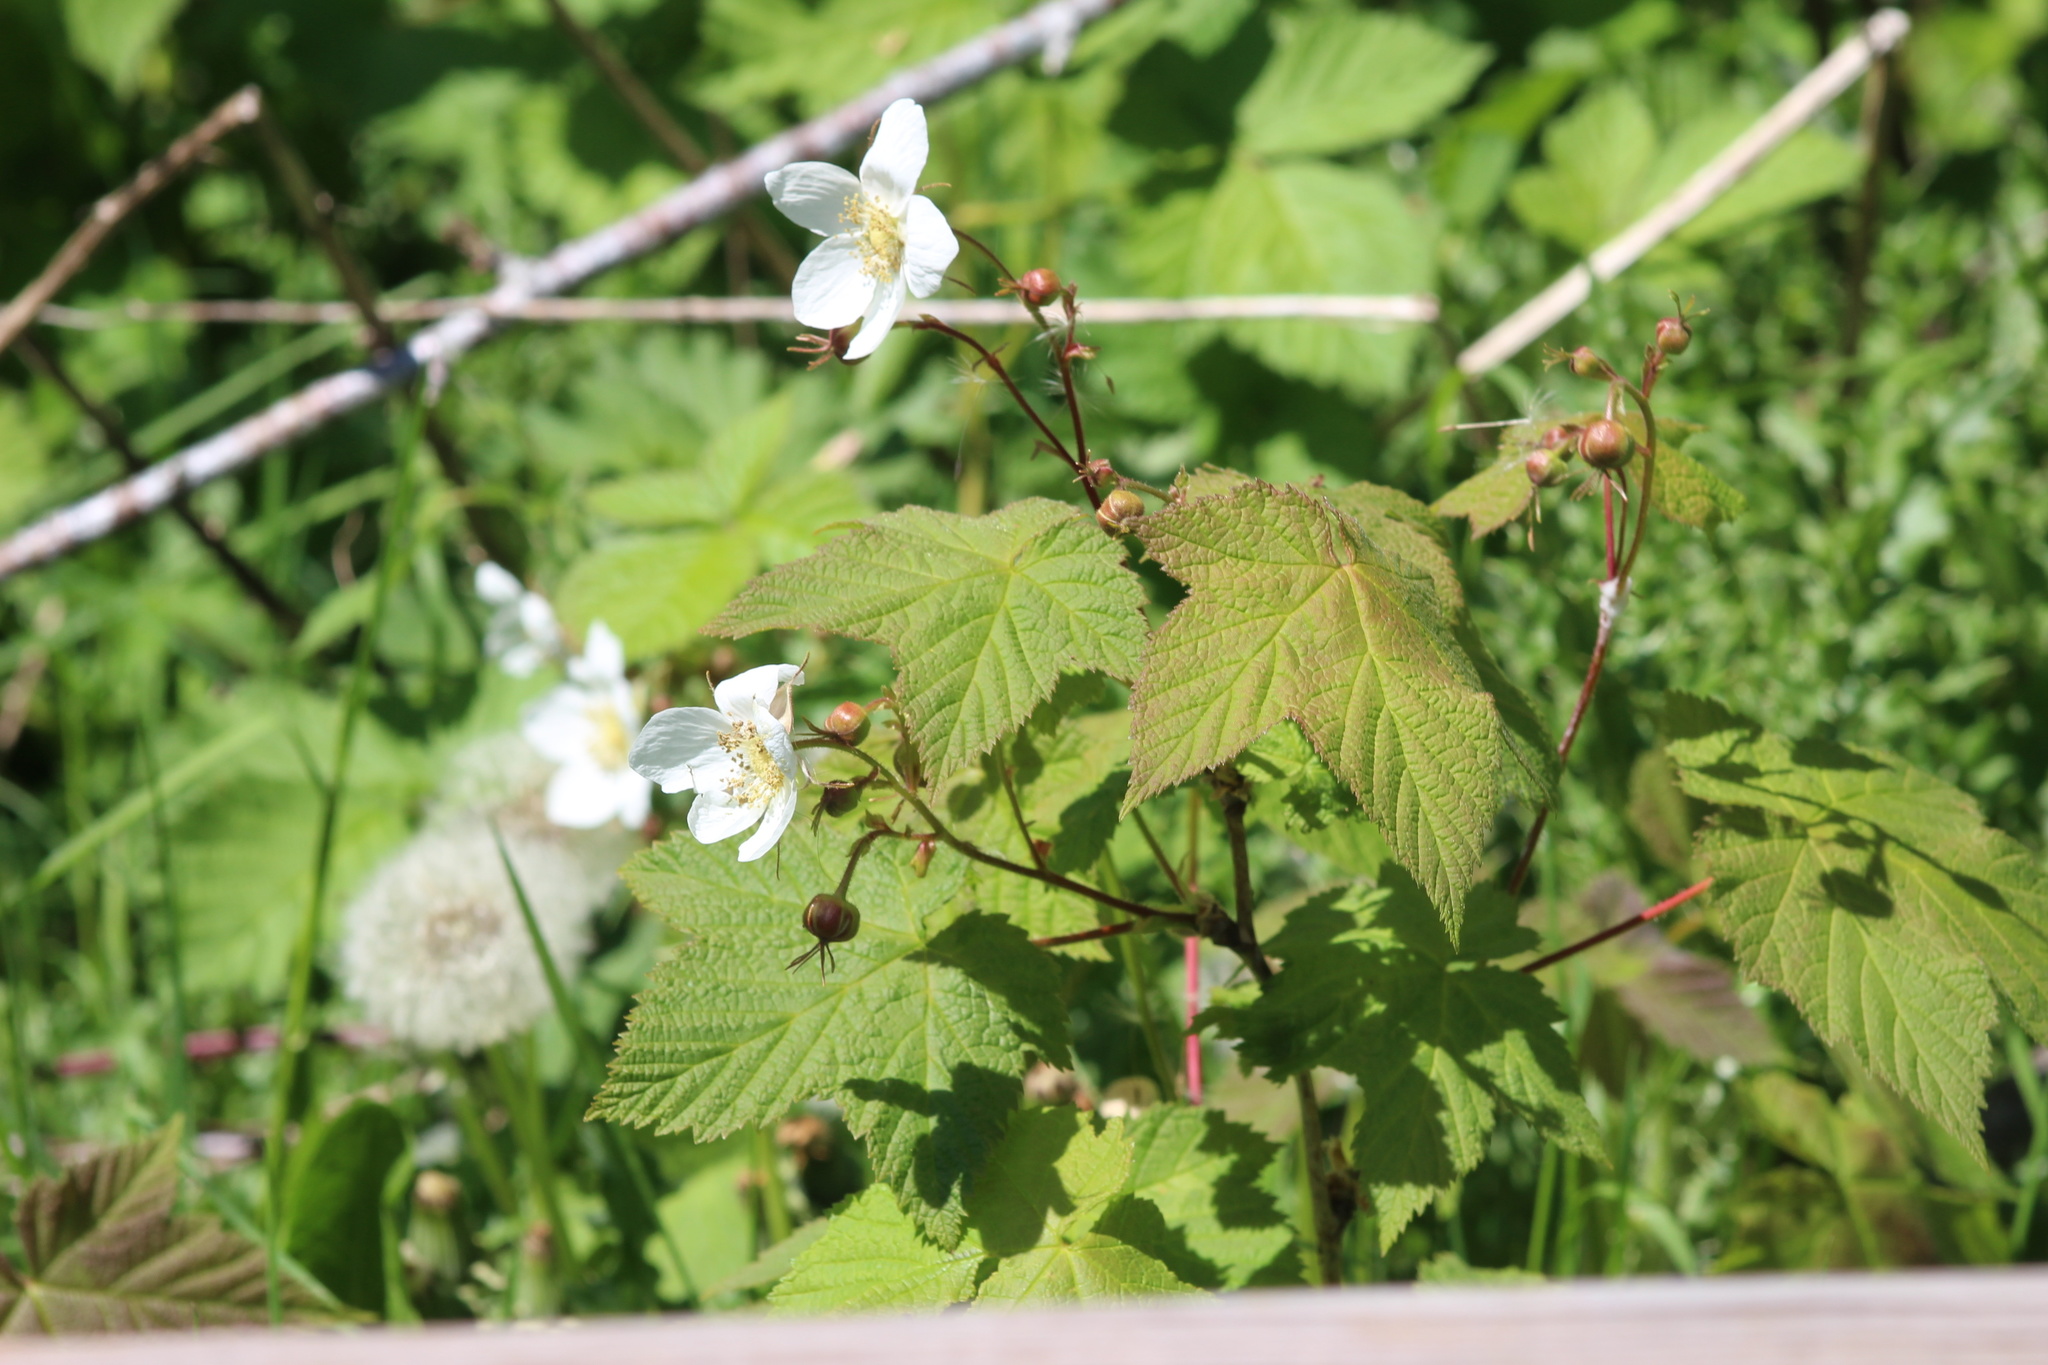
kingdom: Plantae
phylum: Tracheophyta
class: Magnoliopsida
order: Rosales
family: Rosaceae
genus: Rubus
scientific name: Rubus parviflorus
